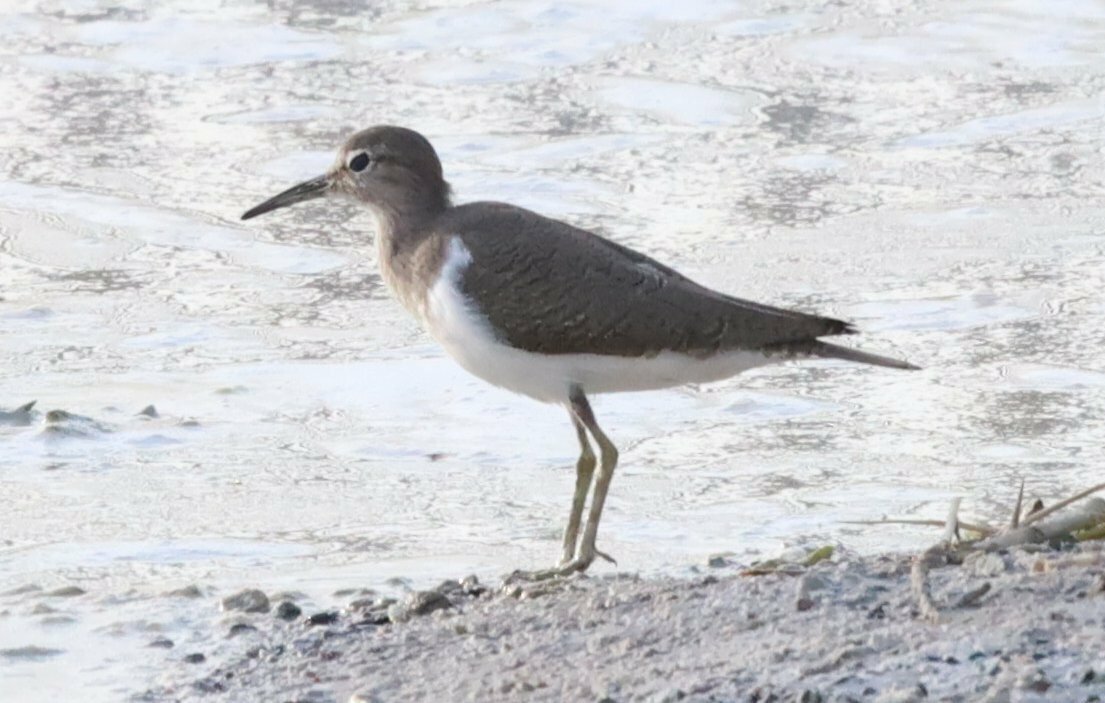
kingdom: Animalia
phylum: Chordata
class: Aves
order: Charadriiformes
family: Scolopacidae
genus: Actitis
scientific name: Actitis hypoleucos
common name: Common sandpiper
